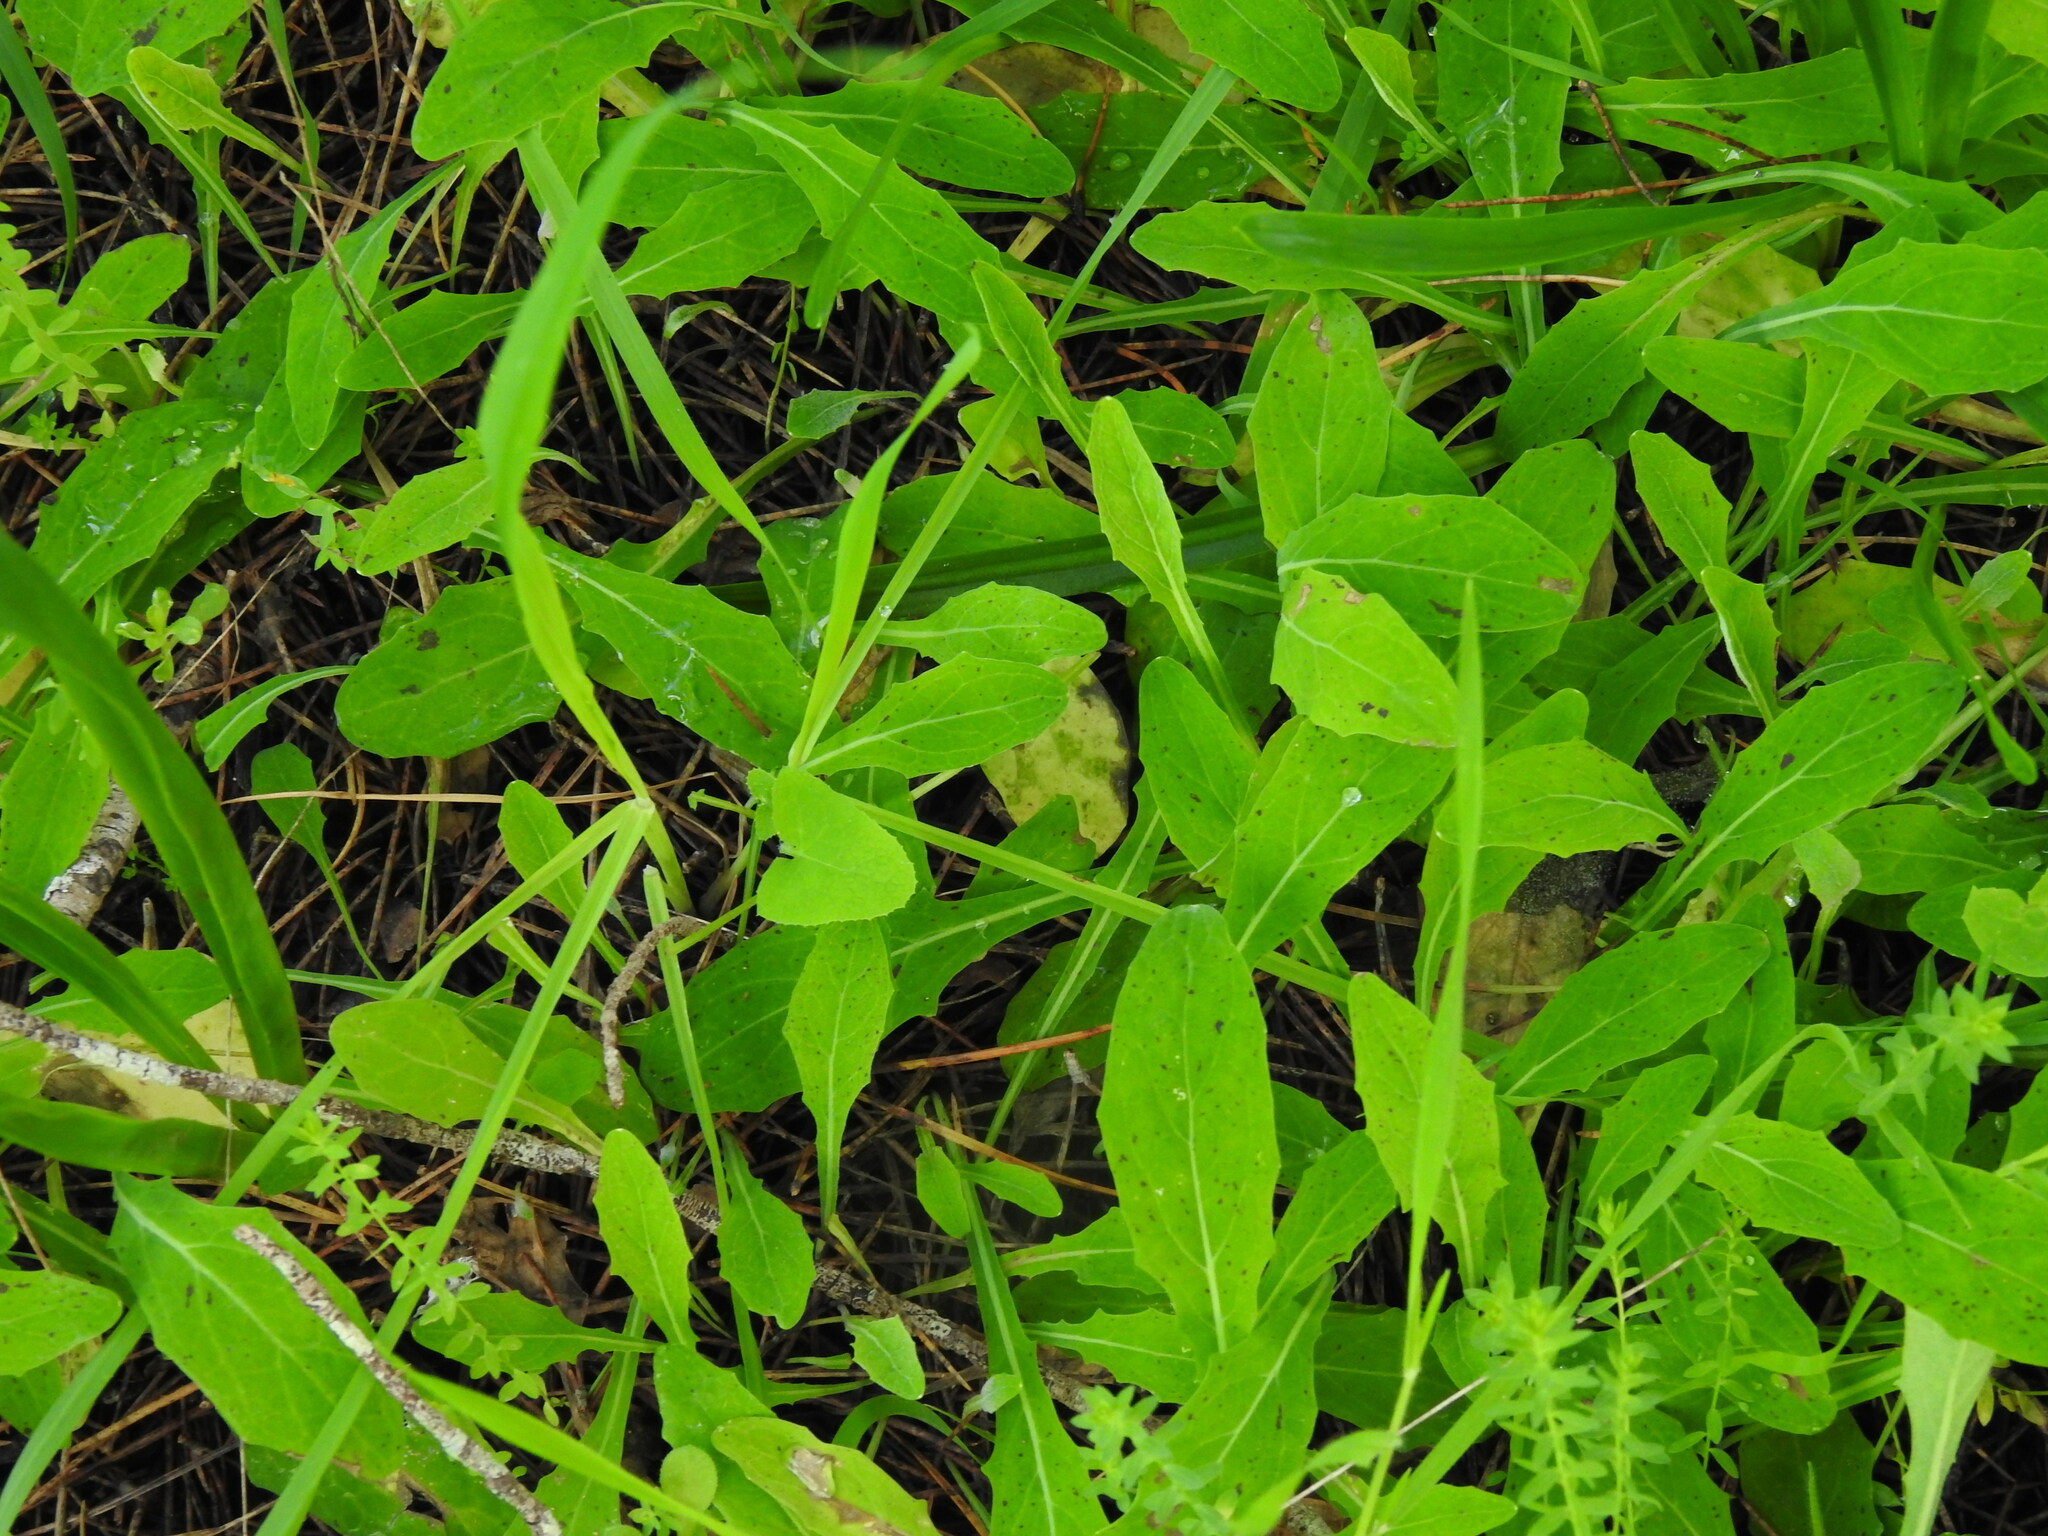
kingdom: Plantae
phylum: Tracheophyta
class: Magnoliopsida
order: Asterales
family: Asteraceae
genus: Aetheorhiza
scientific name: Aetheorhiza bulbosa
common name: Tuberous hawk's-beard
